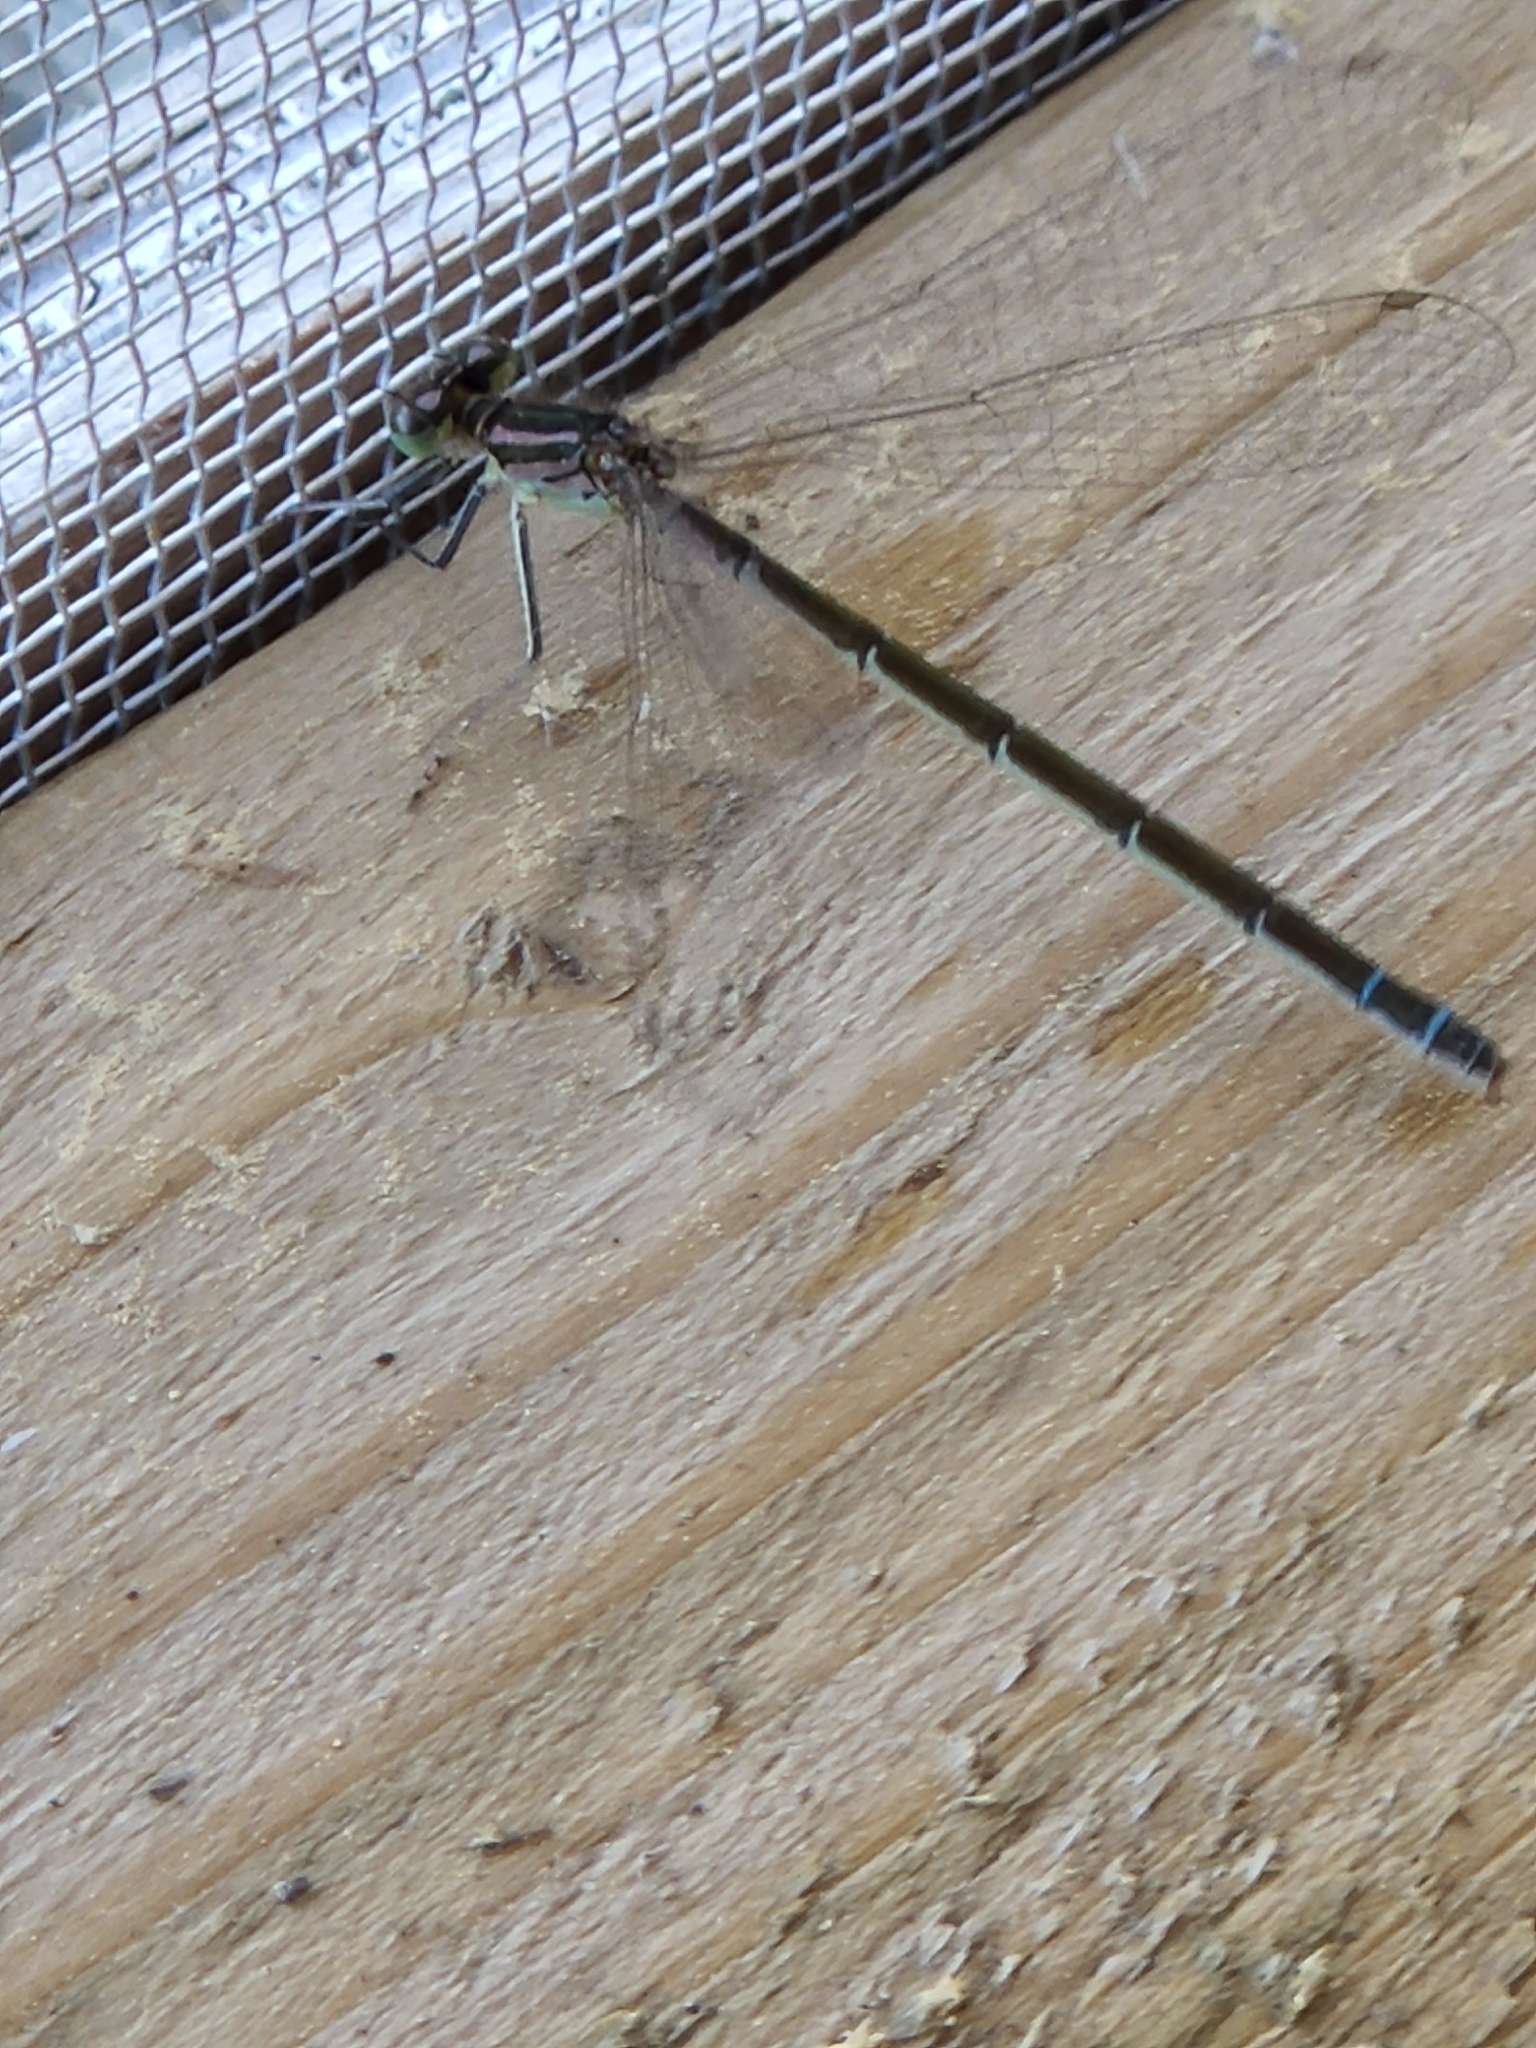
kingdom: Animalia
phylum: Arthropoda
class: Insecta
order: Odonata
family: Coenagrionidae
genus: Coenagrion
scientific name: Coenagrion resolutum
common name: Taiga bluet
